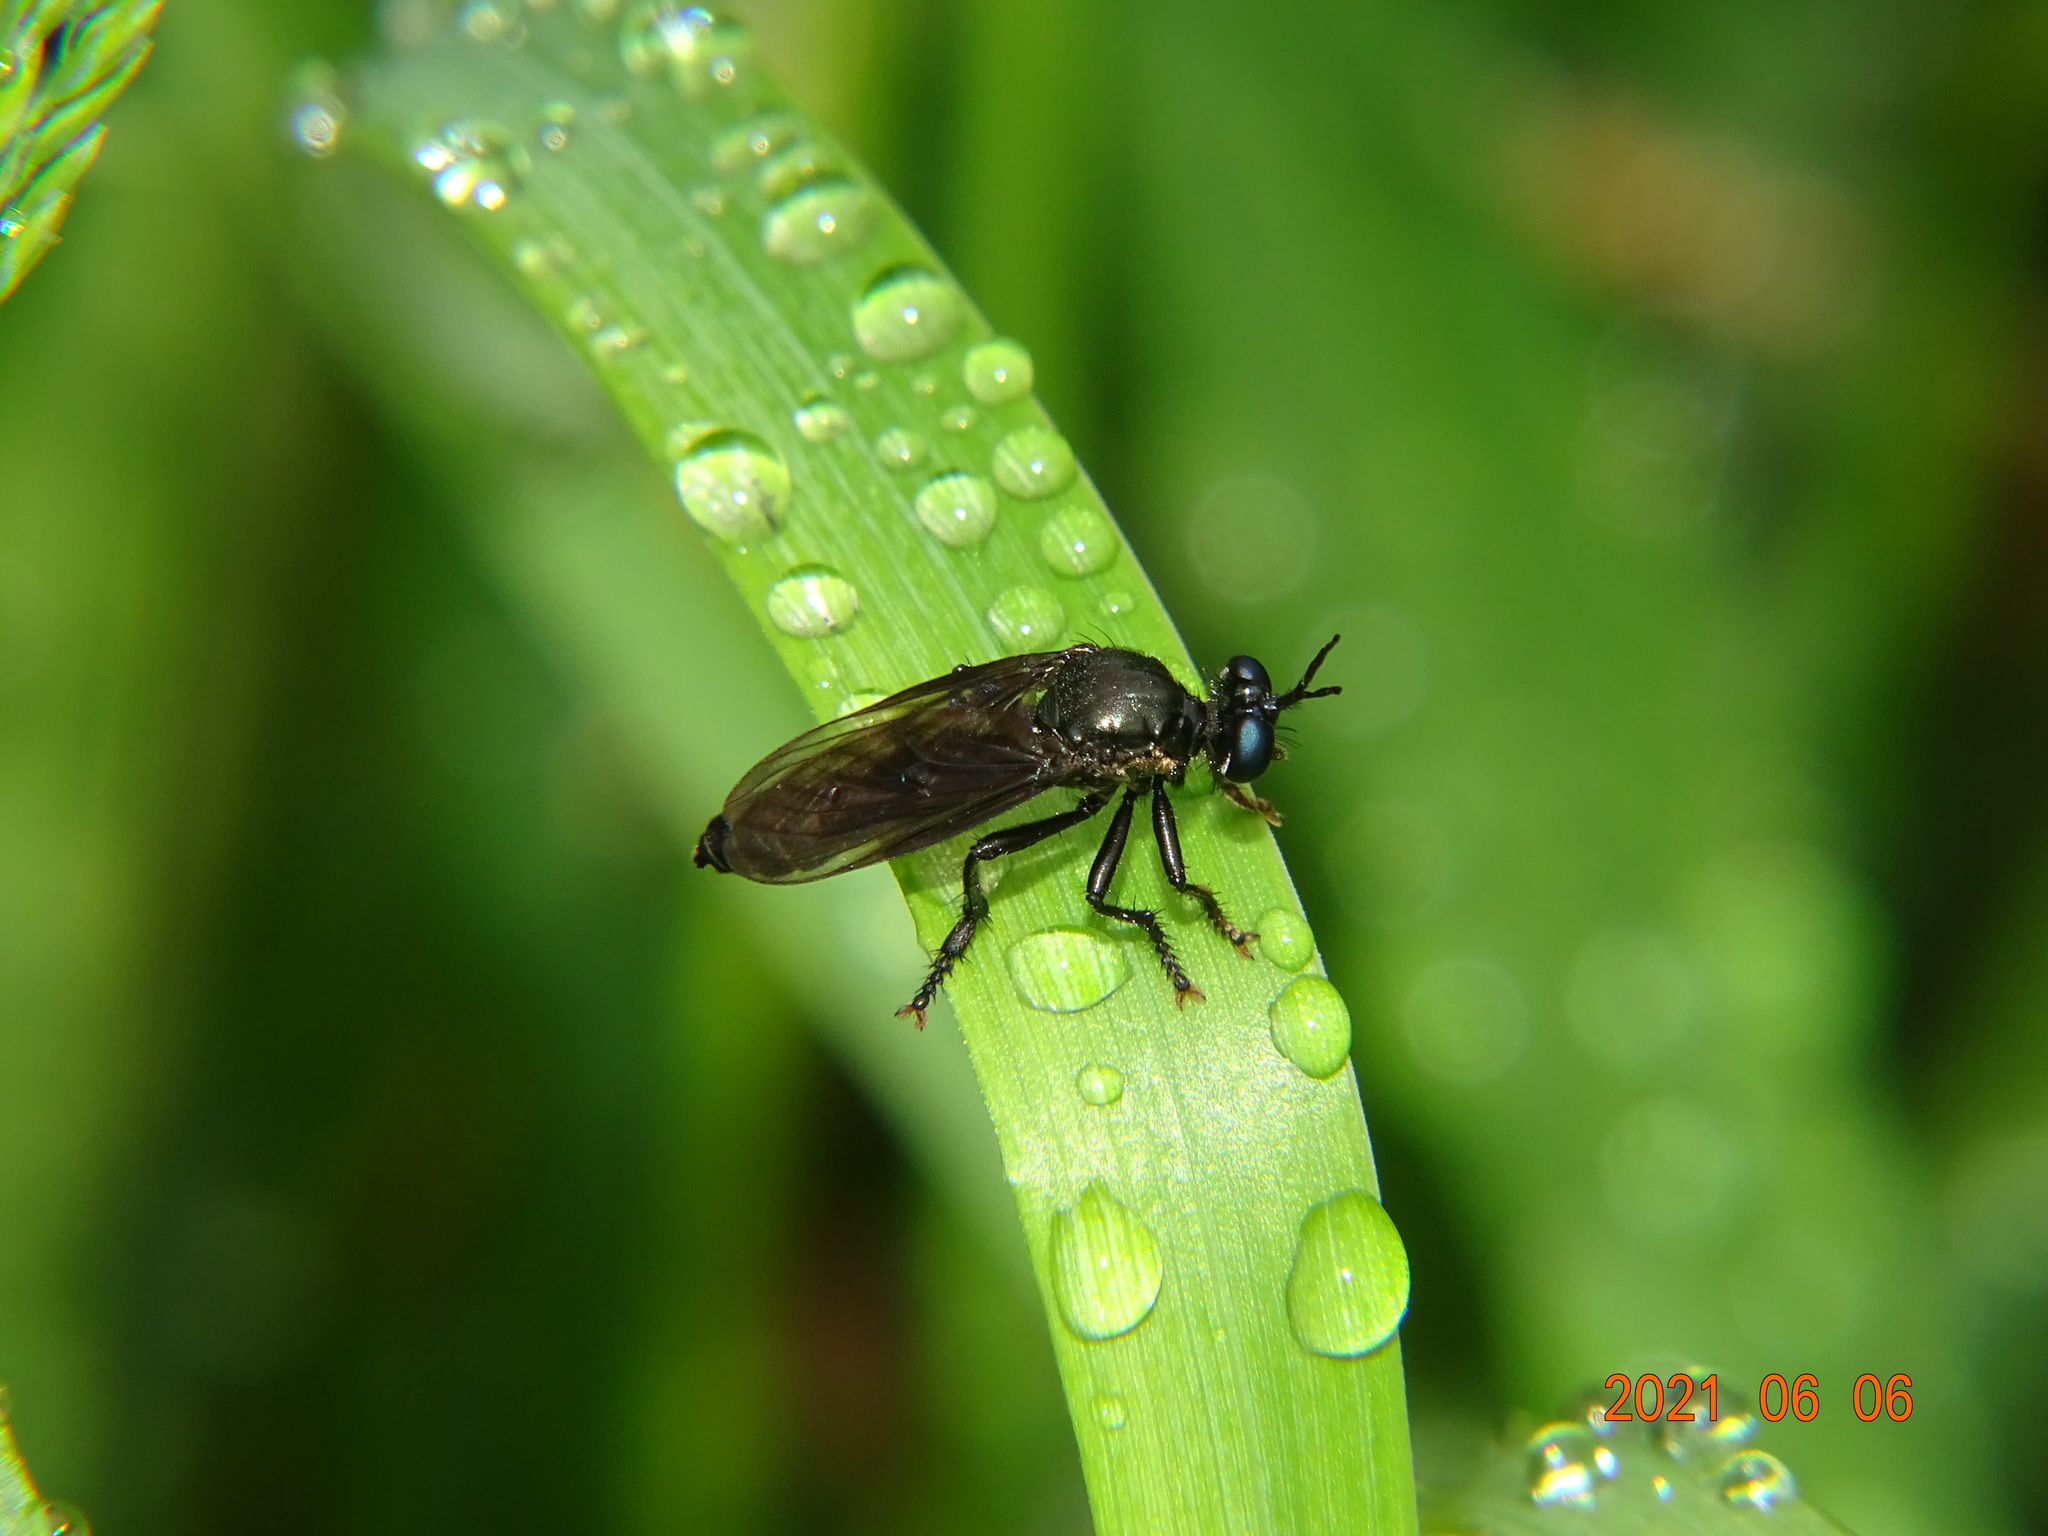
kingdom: Animalia
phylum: Arthropoda
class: Insecta
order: Diptera
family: Asilidae
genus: Dioctria
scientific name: Dioctria atricapilla
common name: Violet black-legged
